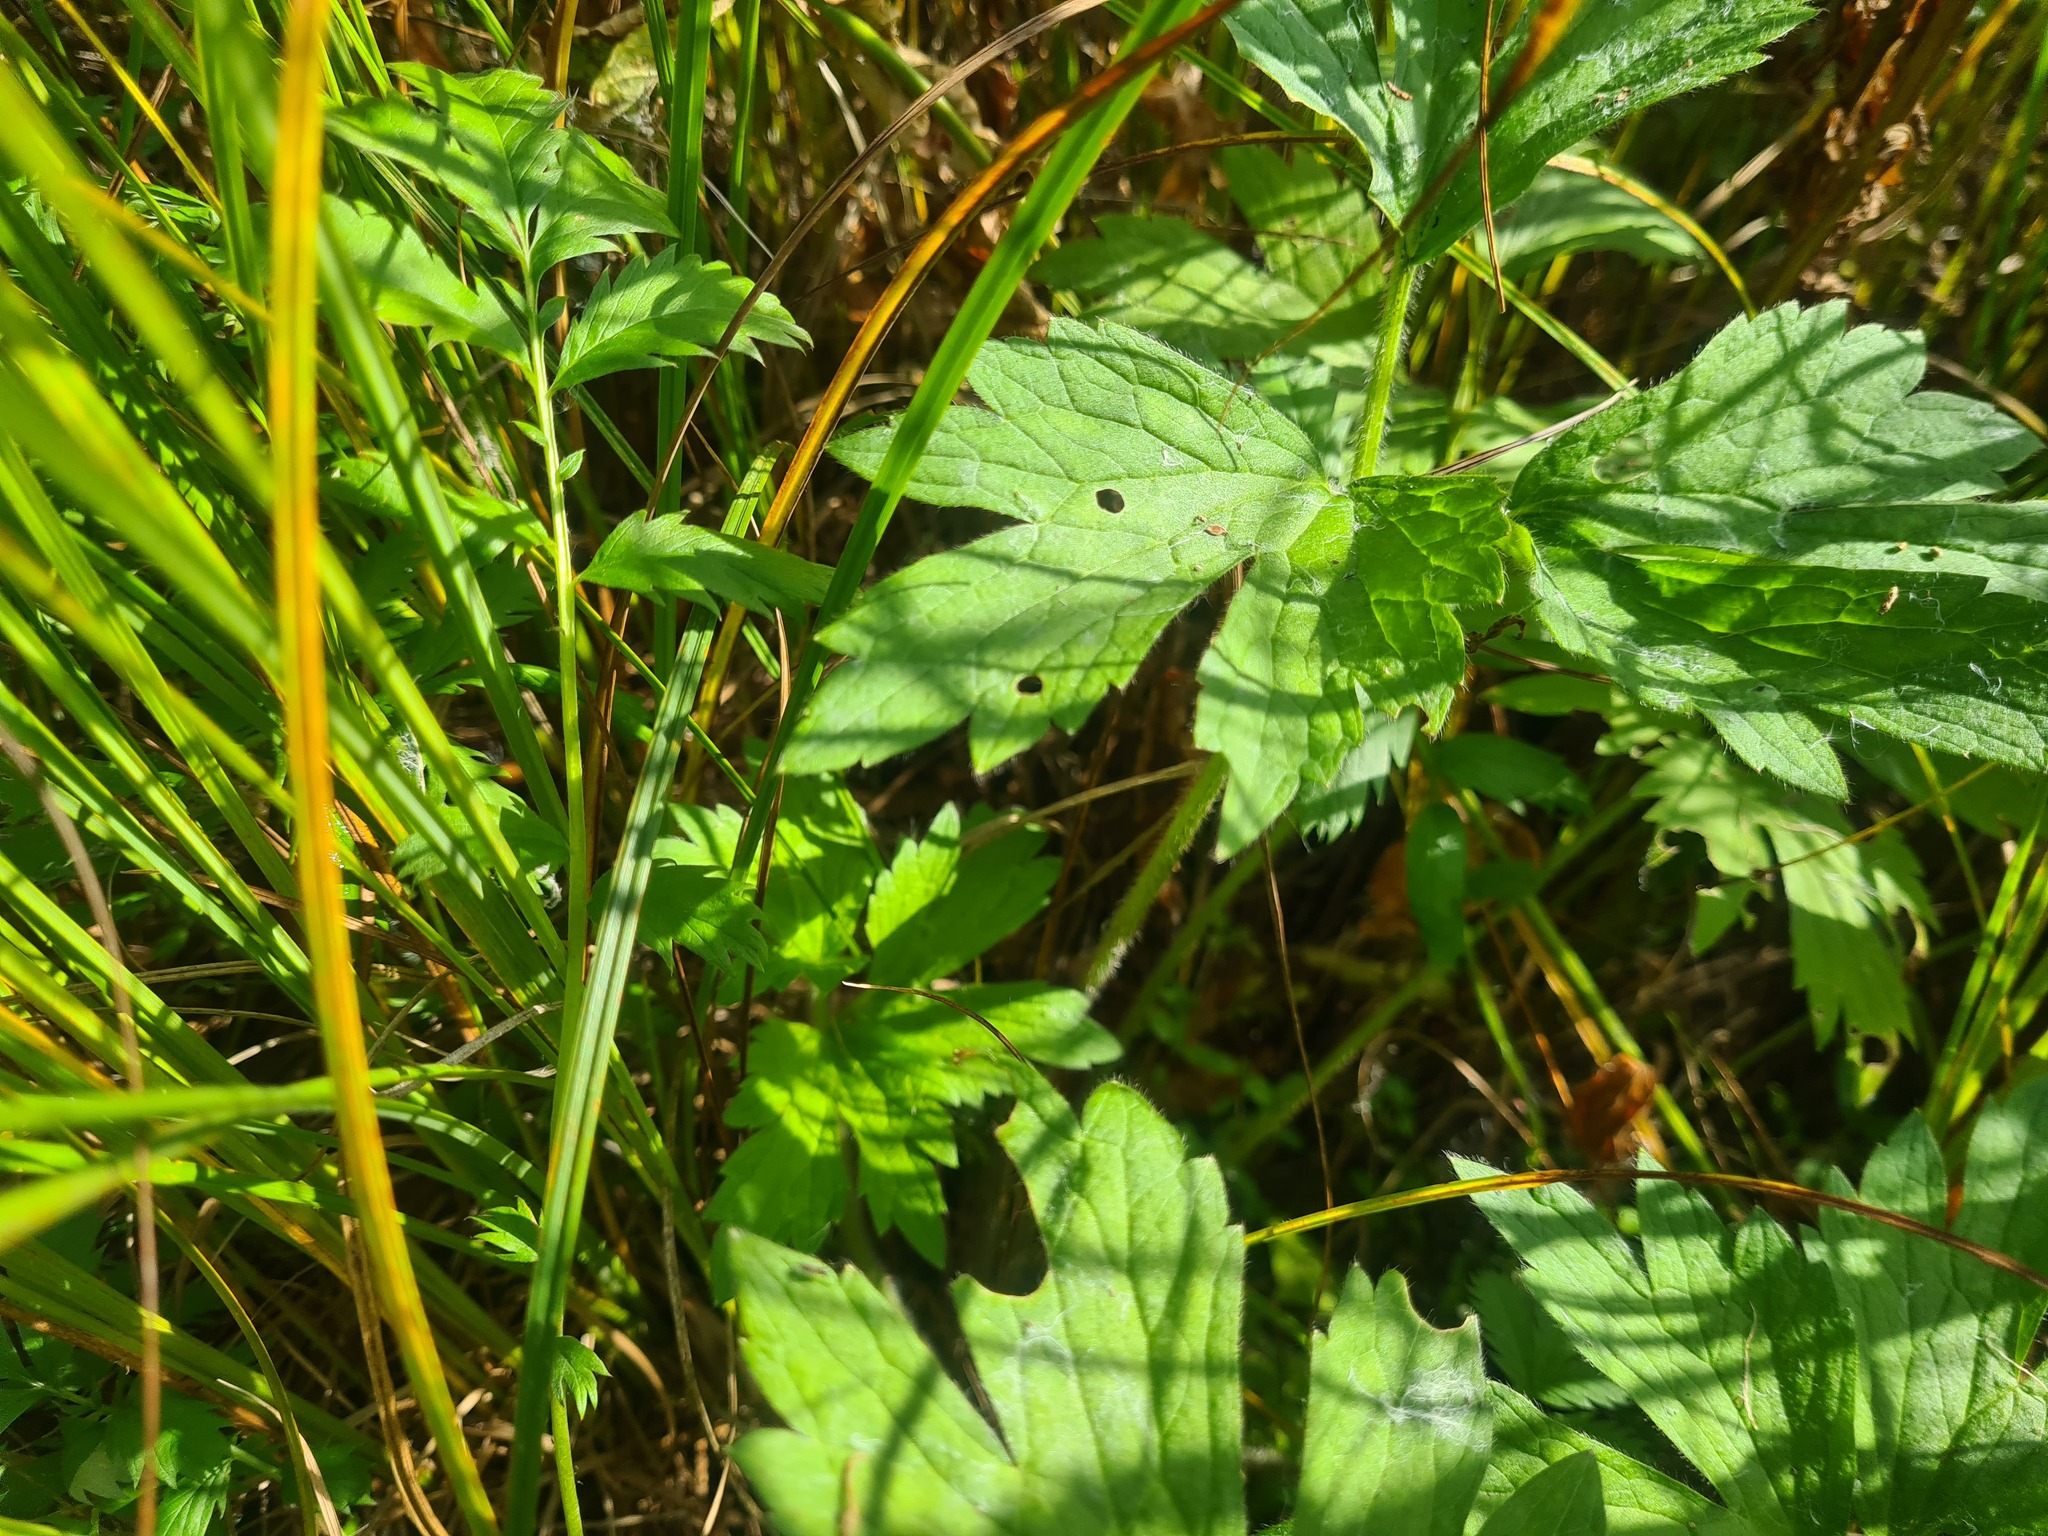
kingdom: Plantae
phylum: Tracheophyta
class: Magnoliopsida
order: Ranunculales
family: Ranunculaceae
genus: Ranunculus
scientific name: Ranunculus repens
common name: Creeping buttercup
